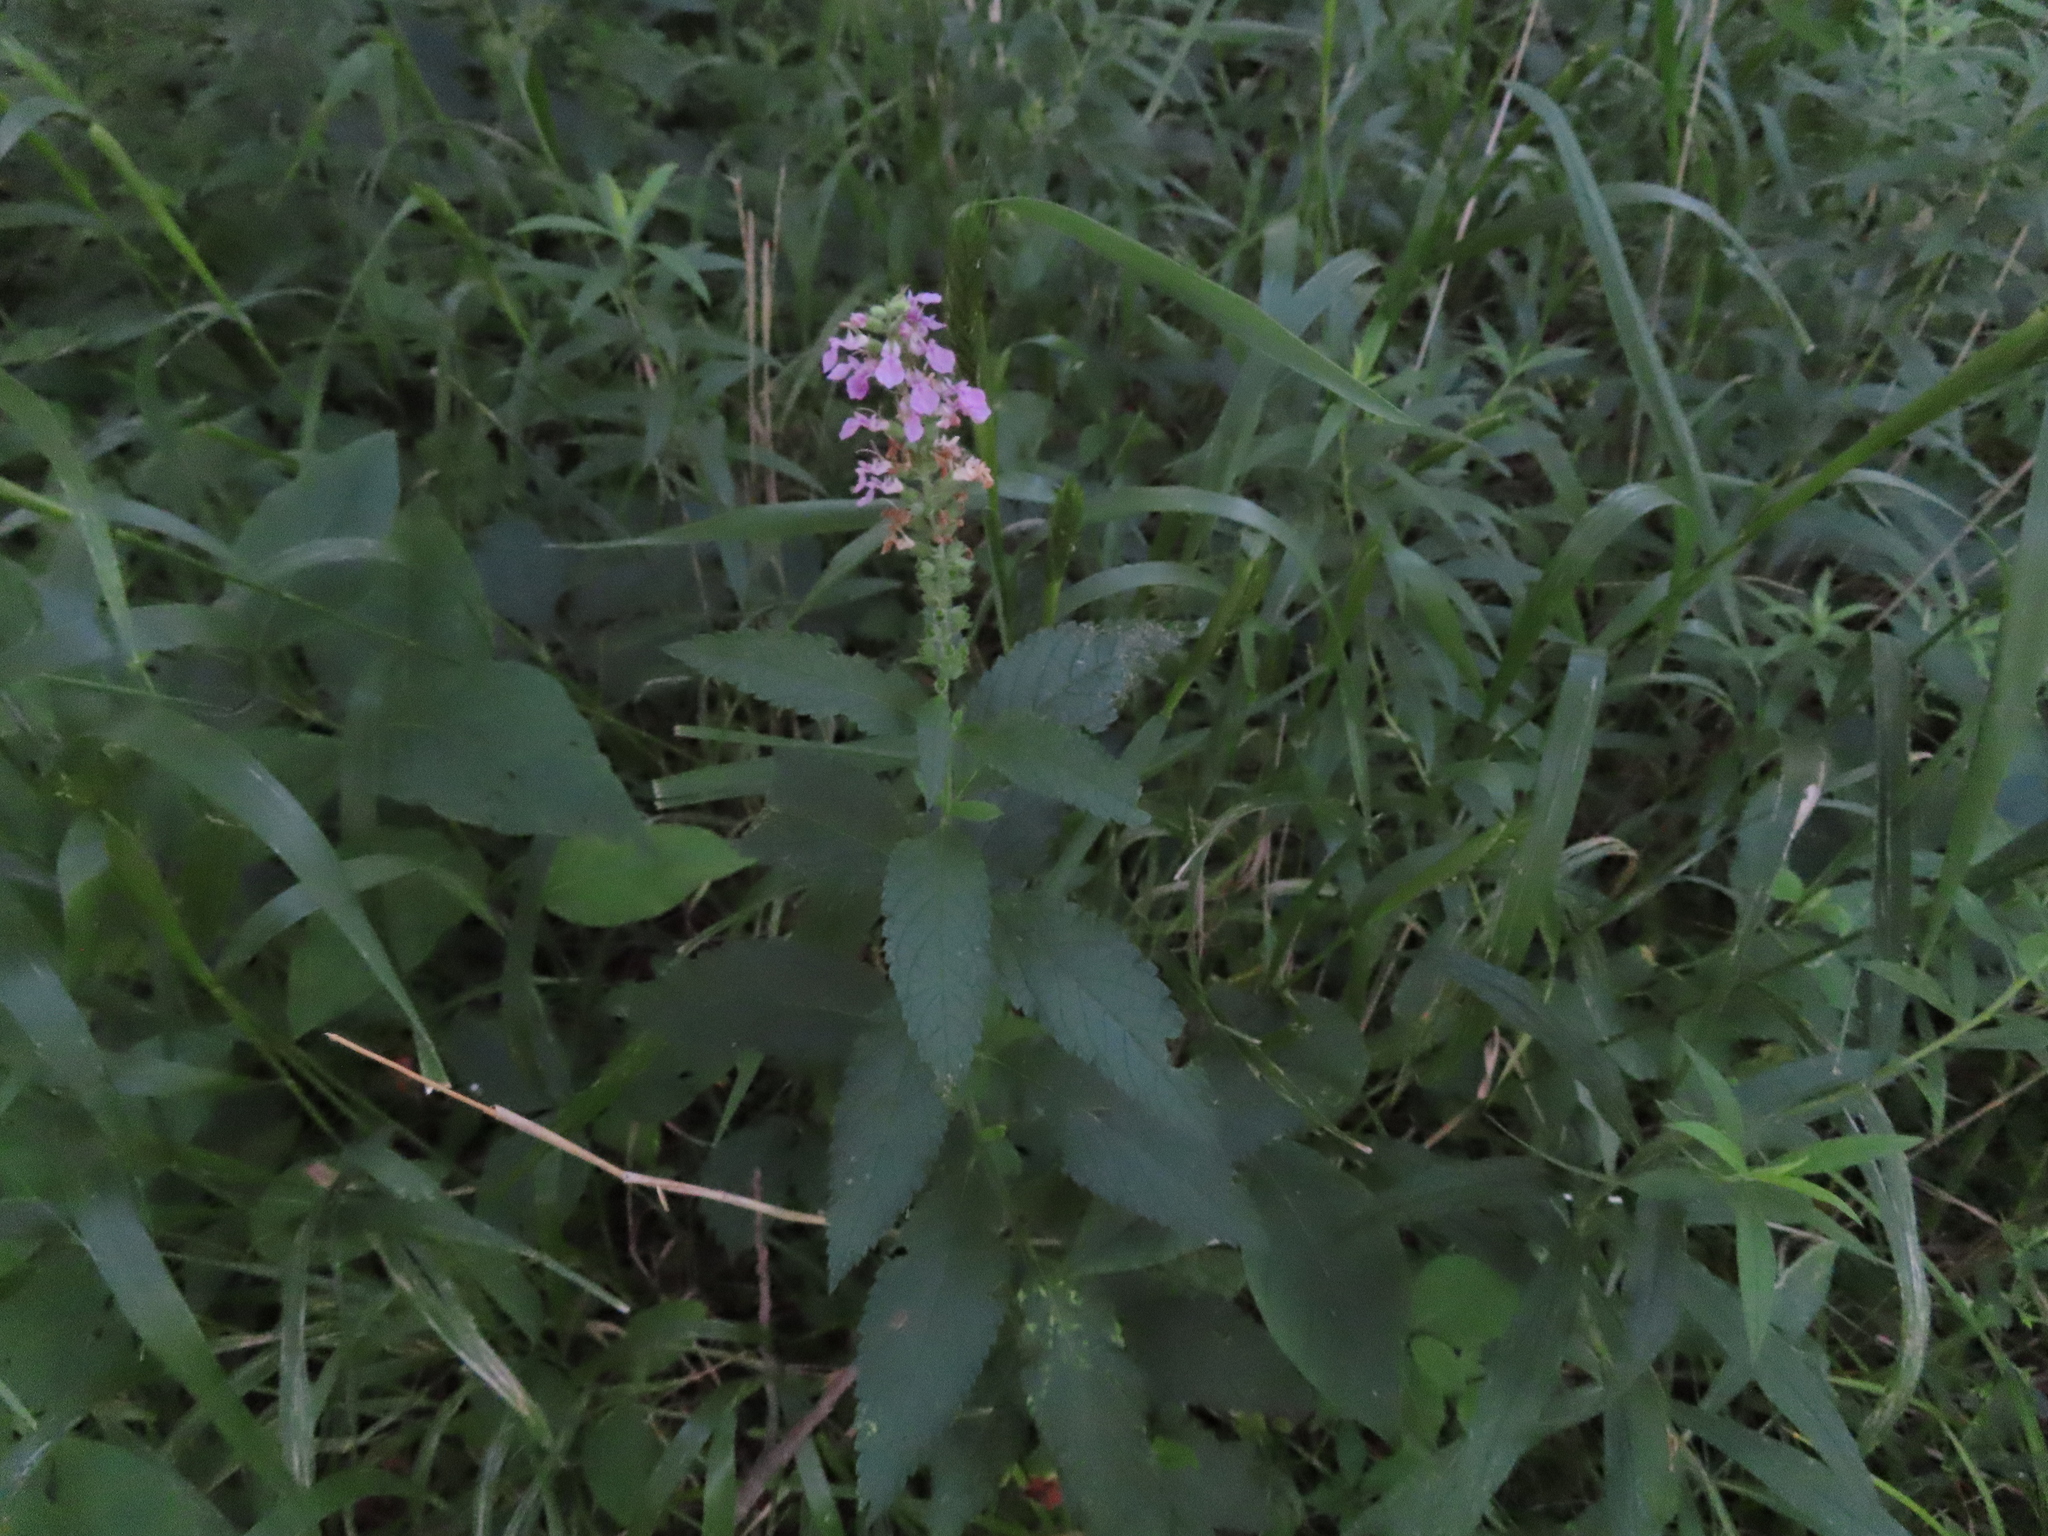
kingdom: Plantae
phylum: Tracheophyta
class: Magnoliopsida
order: Lamiales
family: Lamiaceae
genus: Teucrium
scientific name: Teucrium canadense
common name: American germander
